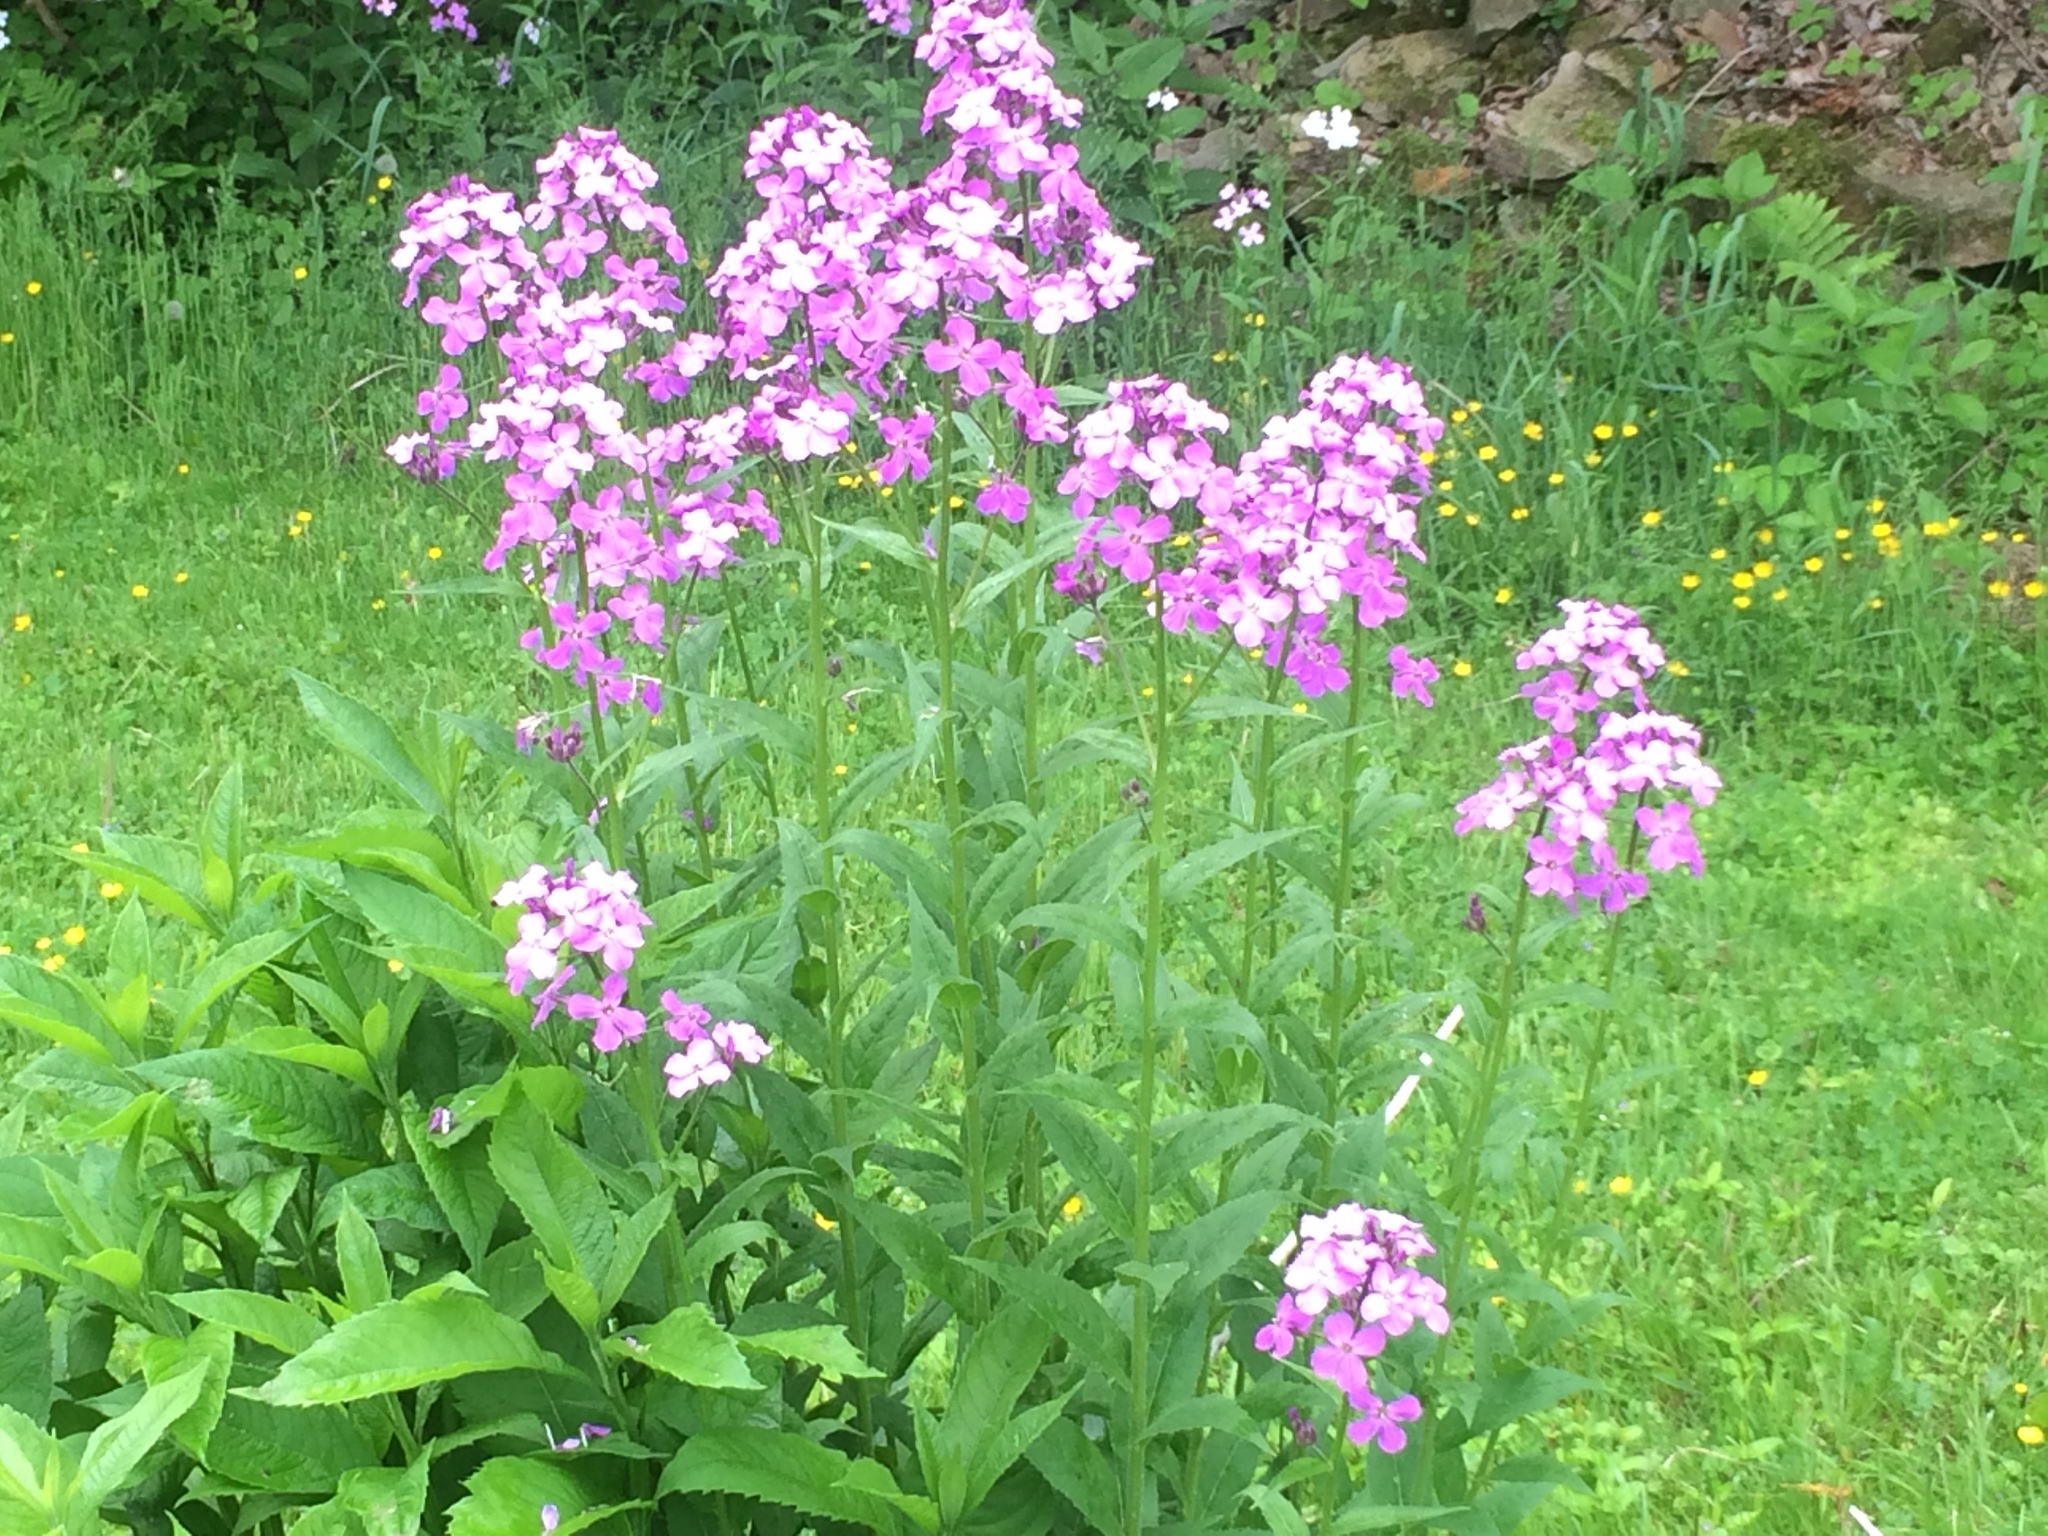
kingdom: Plantae
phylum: Tracheophyta
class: Magnoliopsida
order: Brassicales
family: Brassicaceae
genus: Hesperis
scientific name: Hesperis matronalis
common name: Dame's-violet
